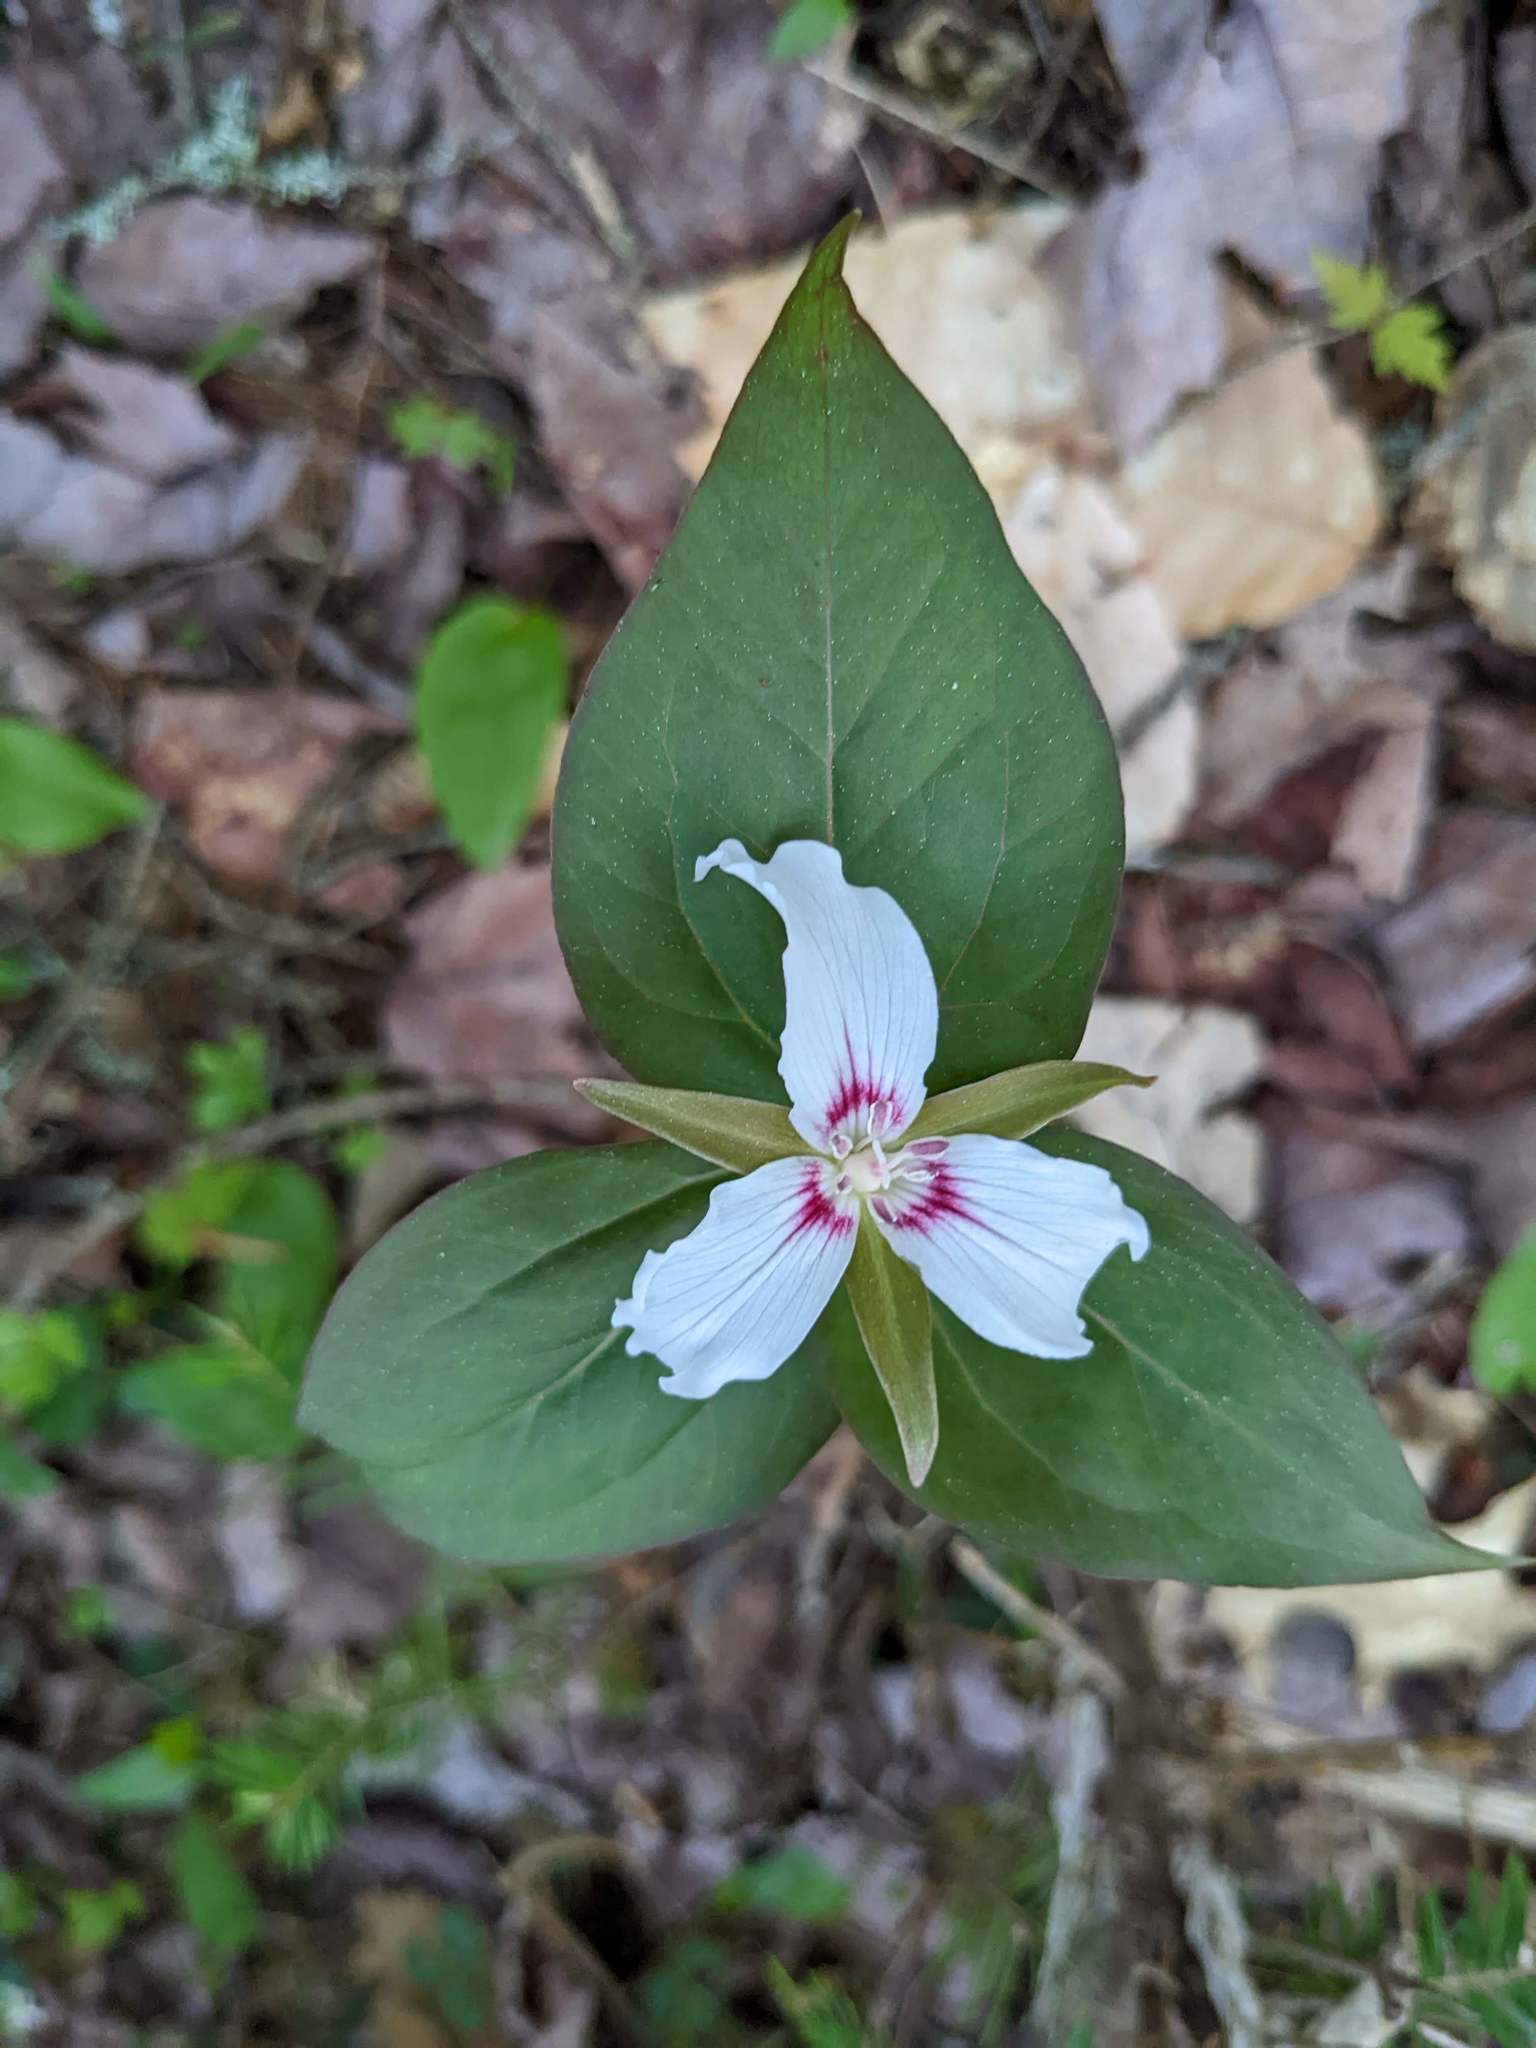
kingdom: Plantae
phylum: Tracheophyta
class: Liliopsida
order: Liliales
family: Melanthiaceae
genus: Trillium
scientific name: Trillium undulatum
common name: Paint trillium
